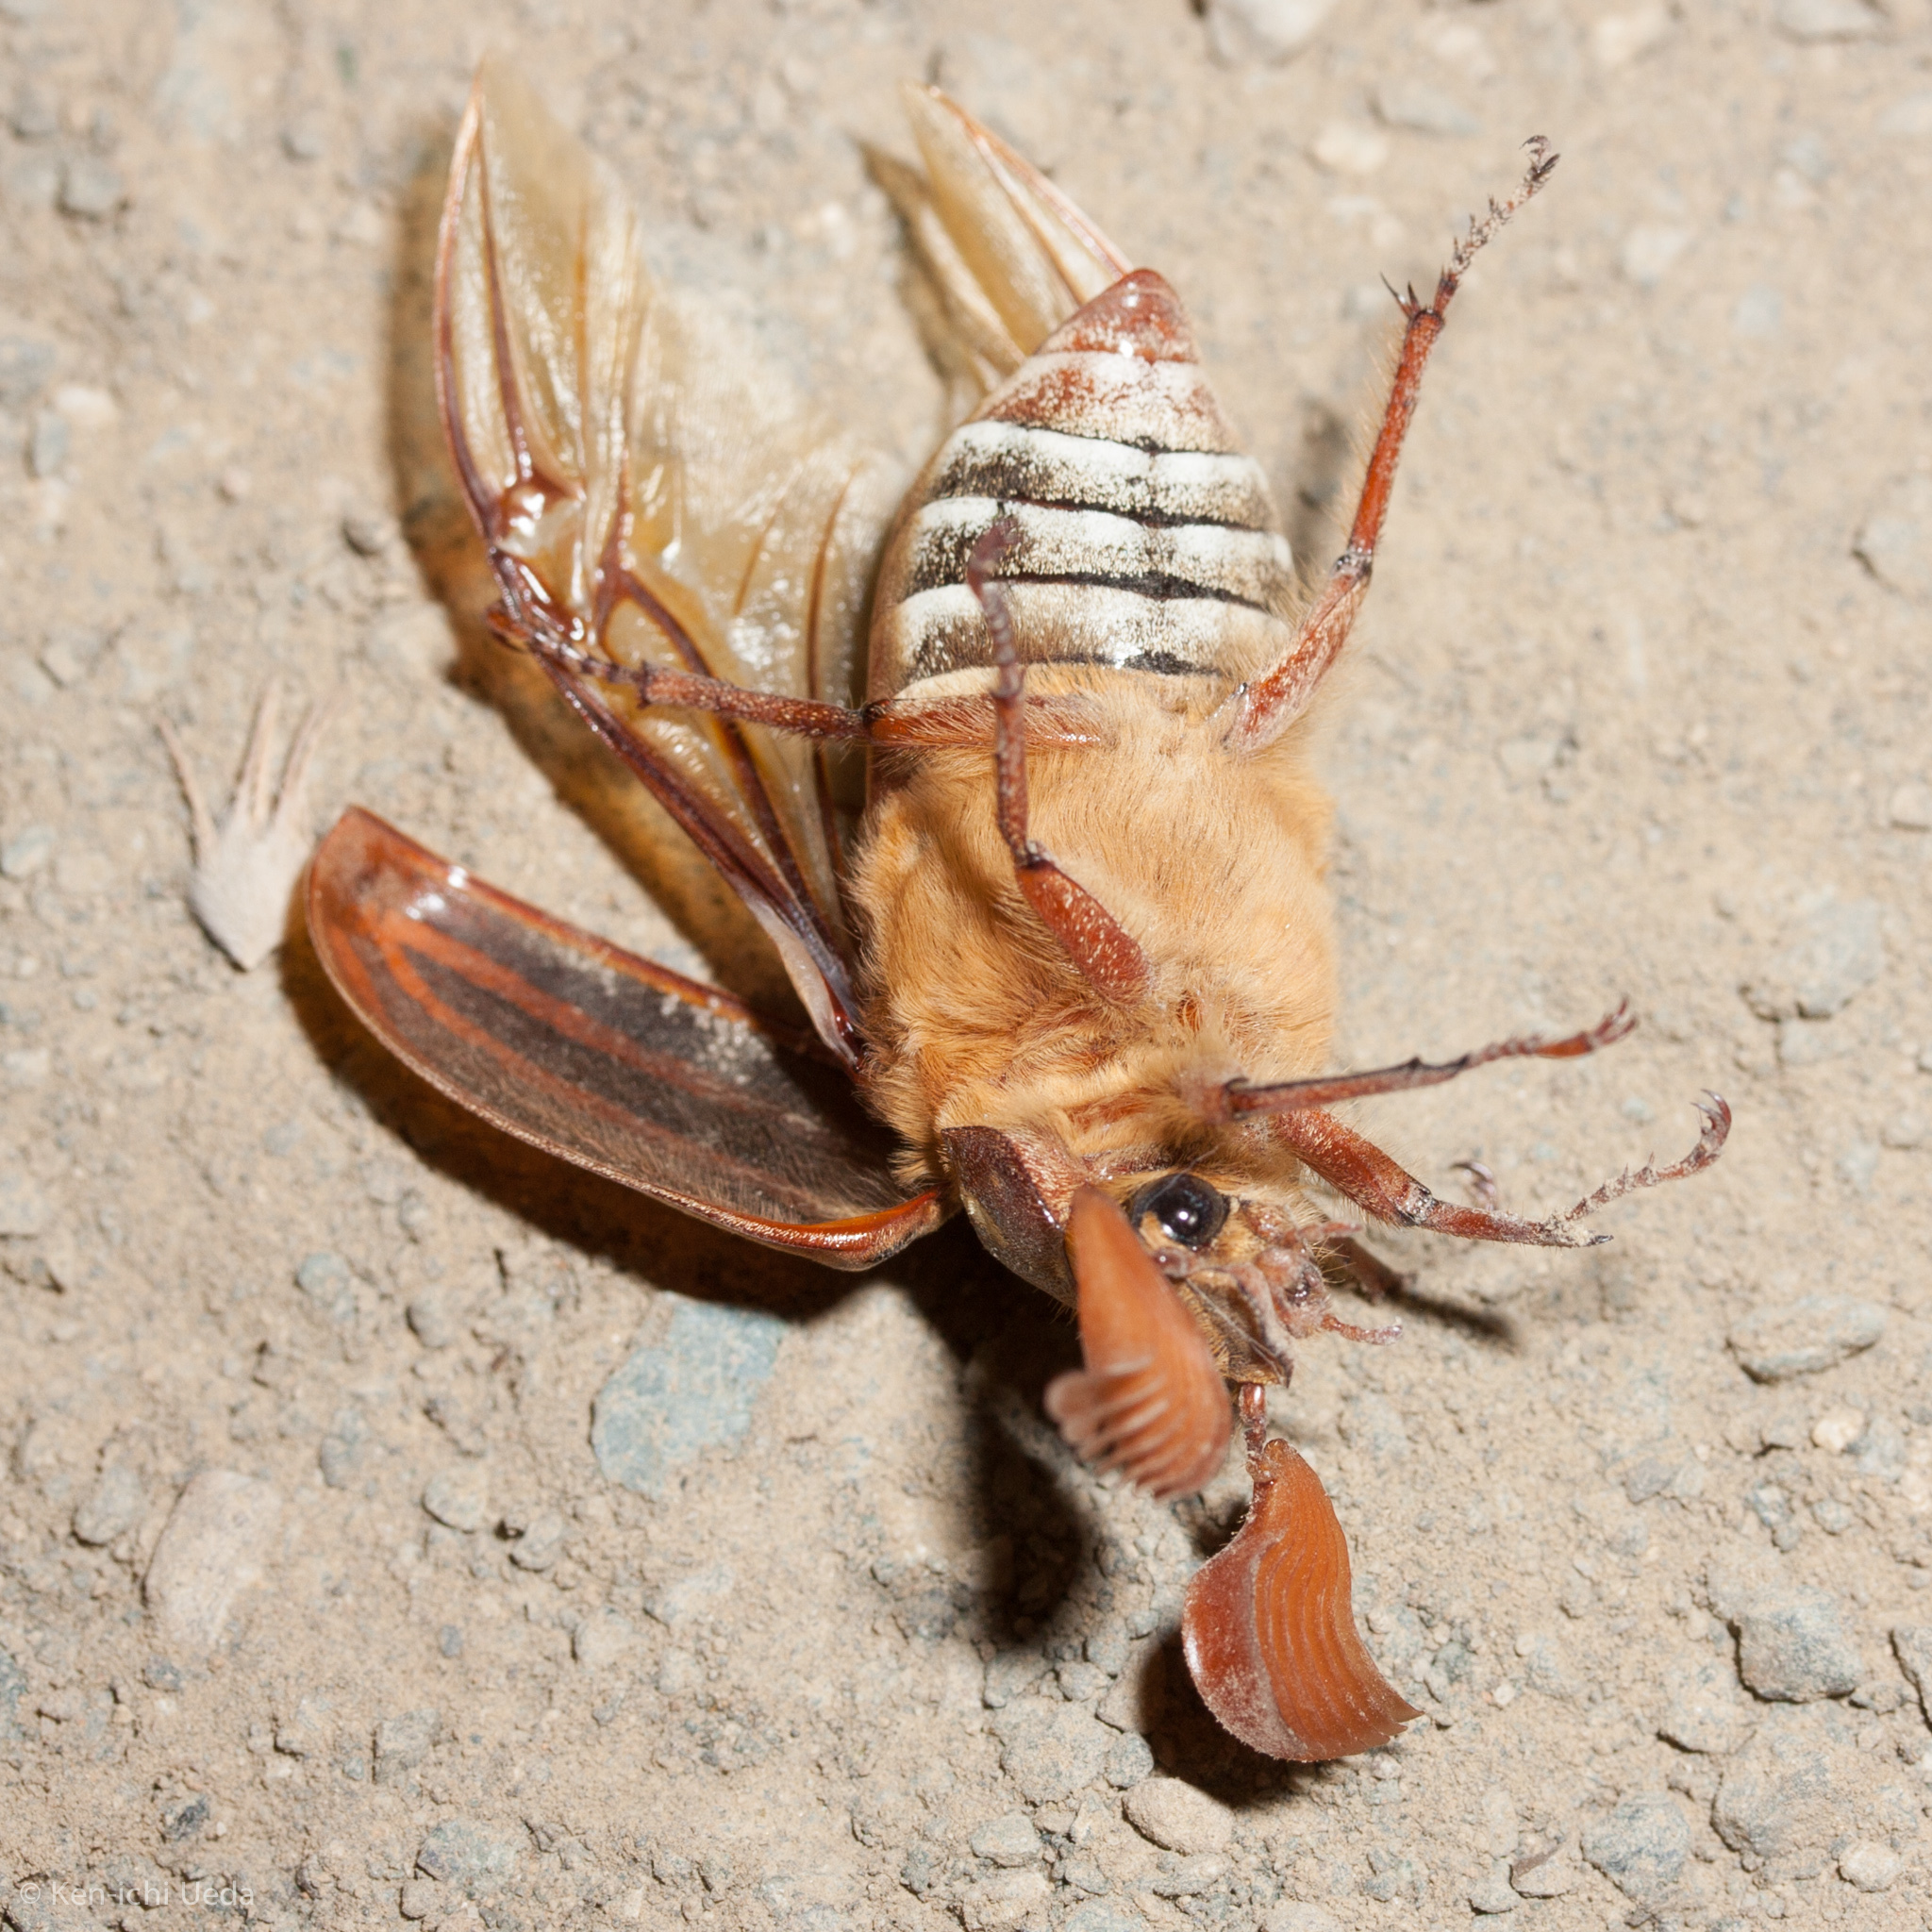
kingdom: Animalia
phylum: Arthropoda
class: Insecta
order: Coleoptera
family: Scarabaeidae
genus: Polyphylla
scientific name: Polyphylla crinita
